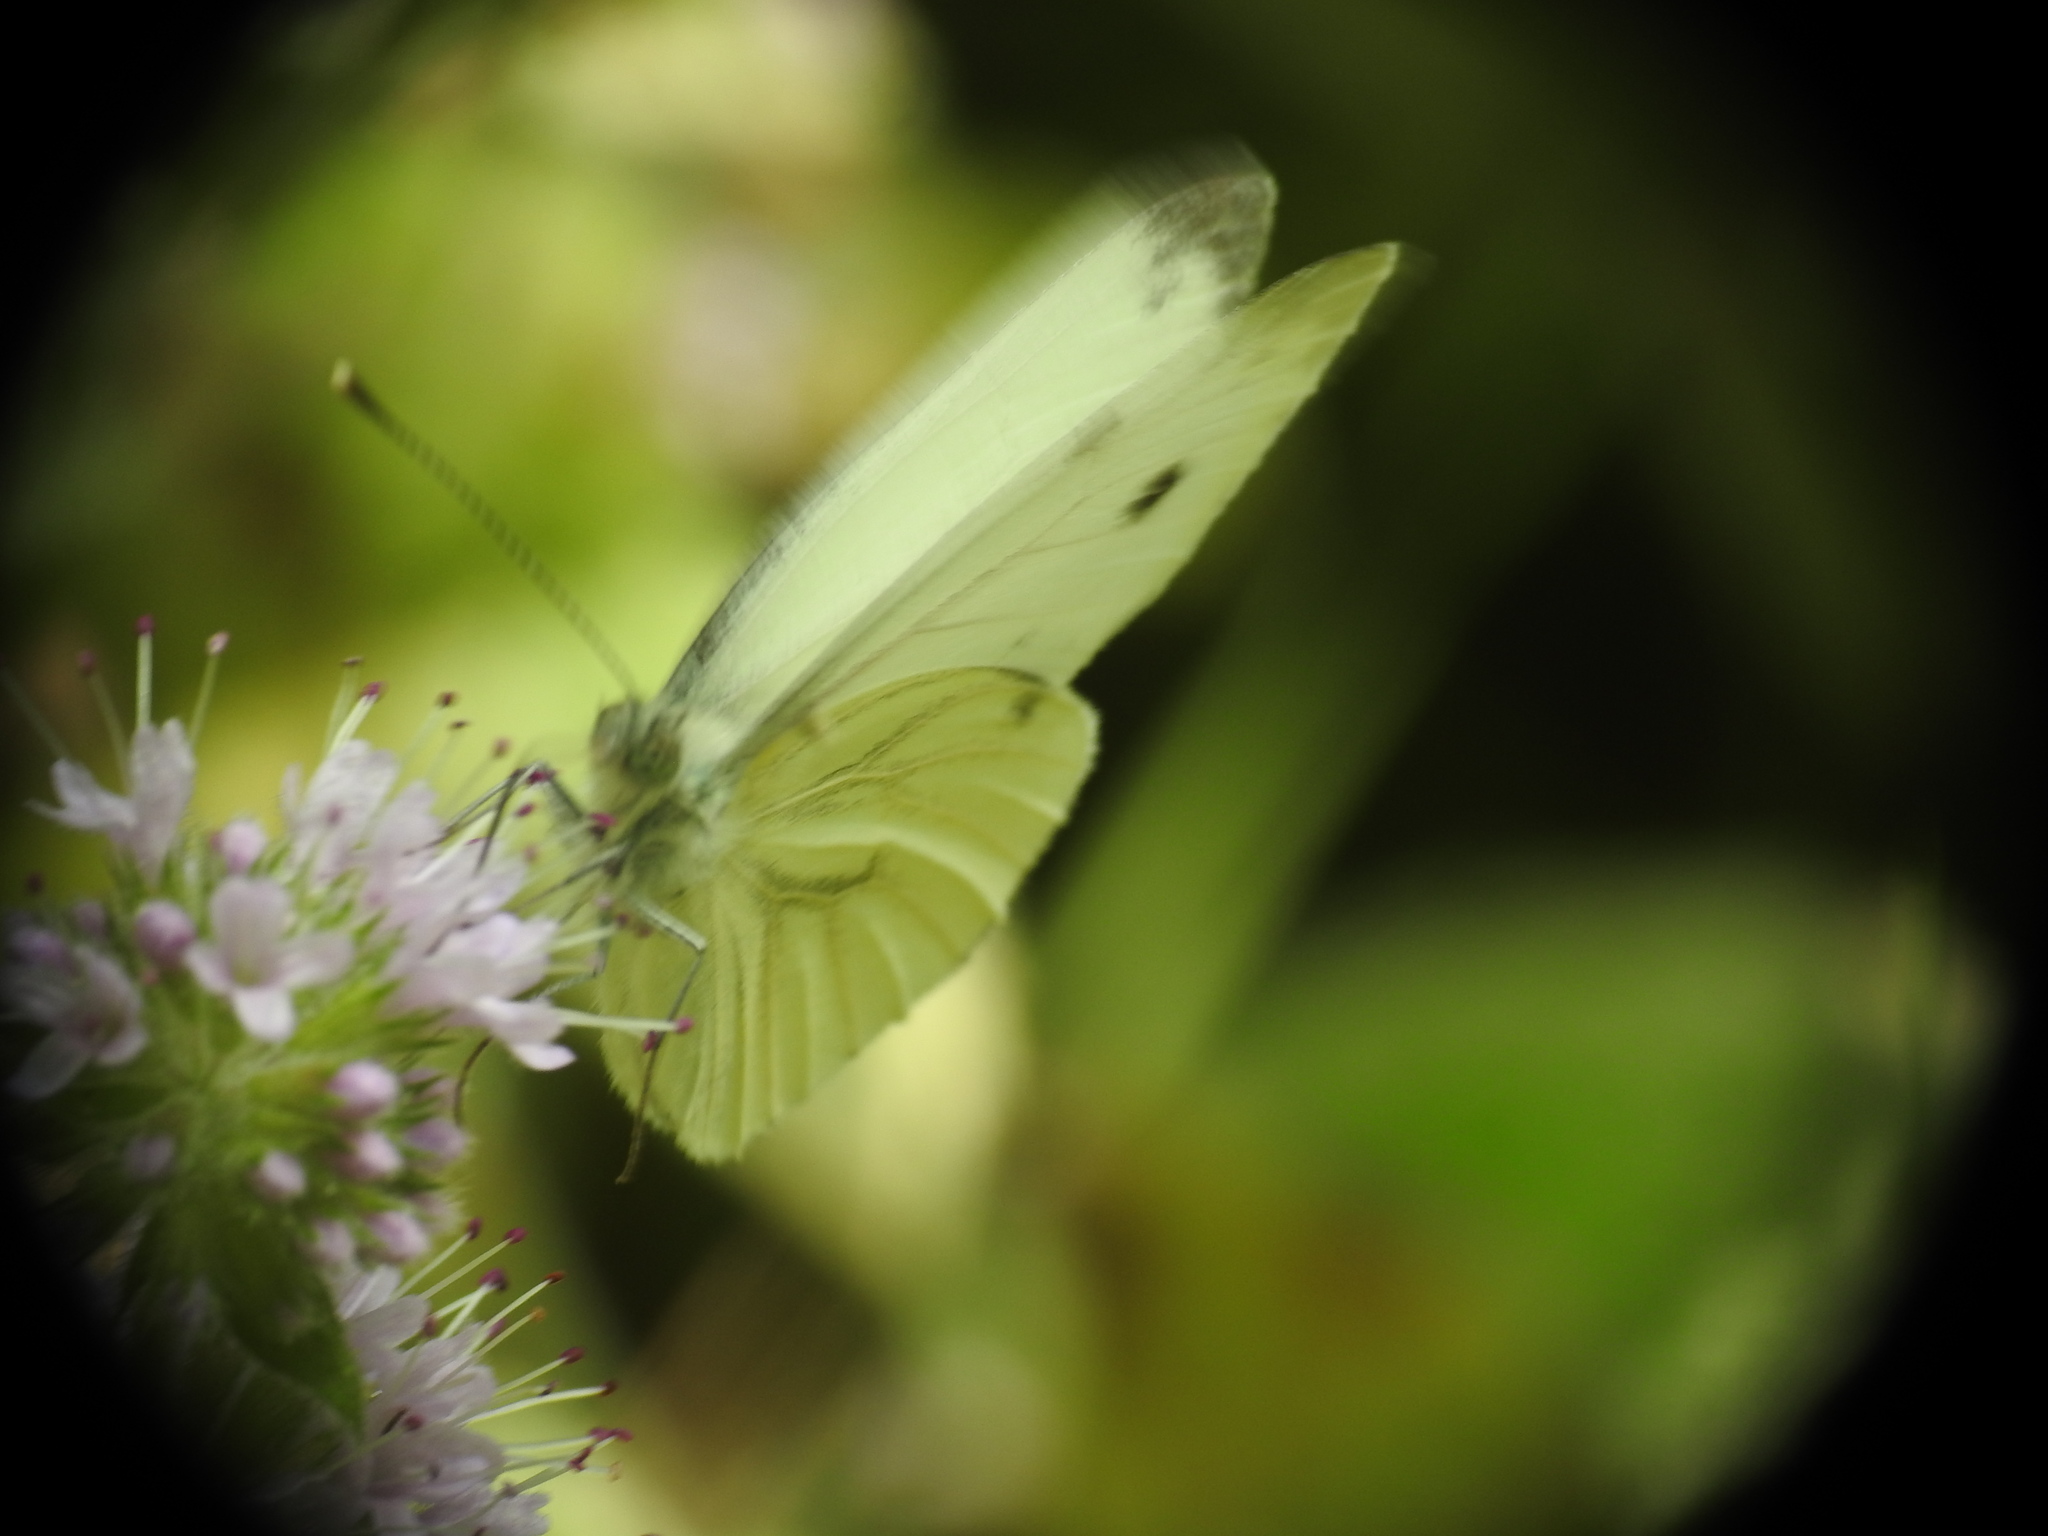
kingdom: Animalia
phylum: Arthropoda
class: Insecta
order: Lepidoptera
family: Pieridae
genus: Pieris
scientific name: Pieris napi
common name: Green-veined white
